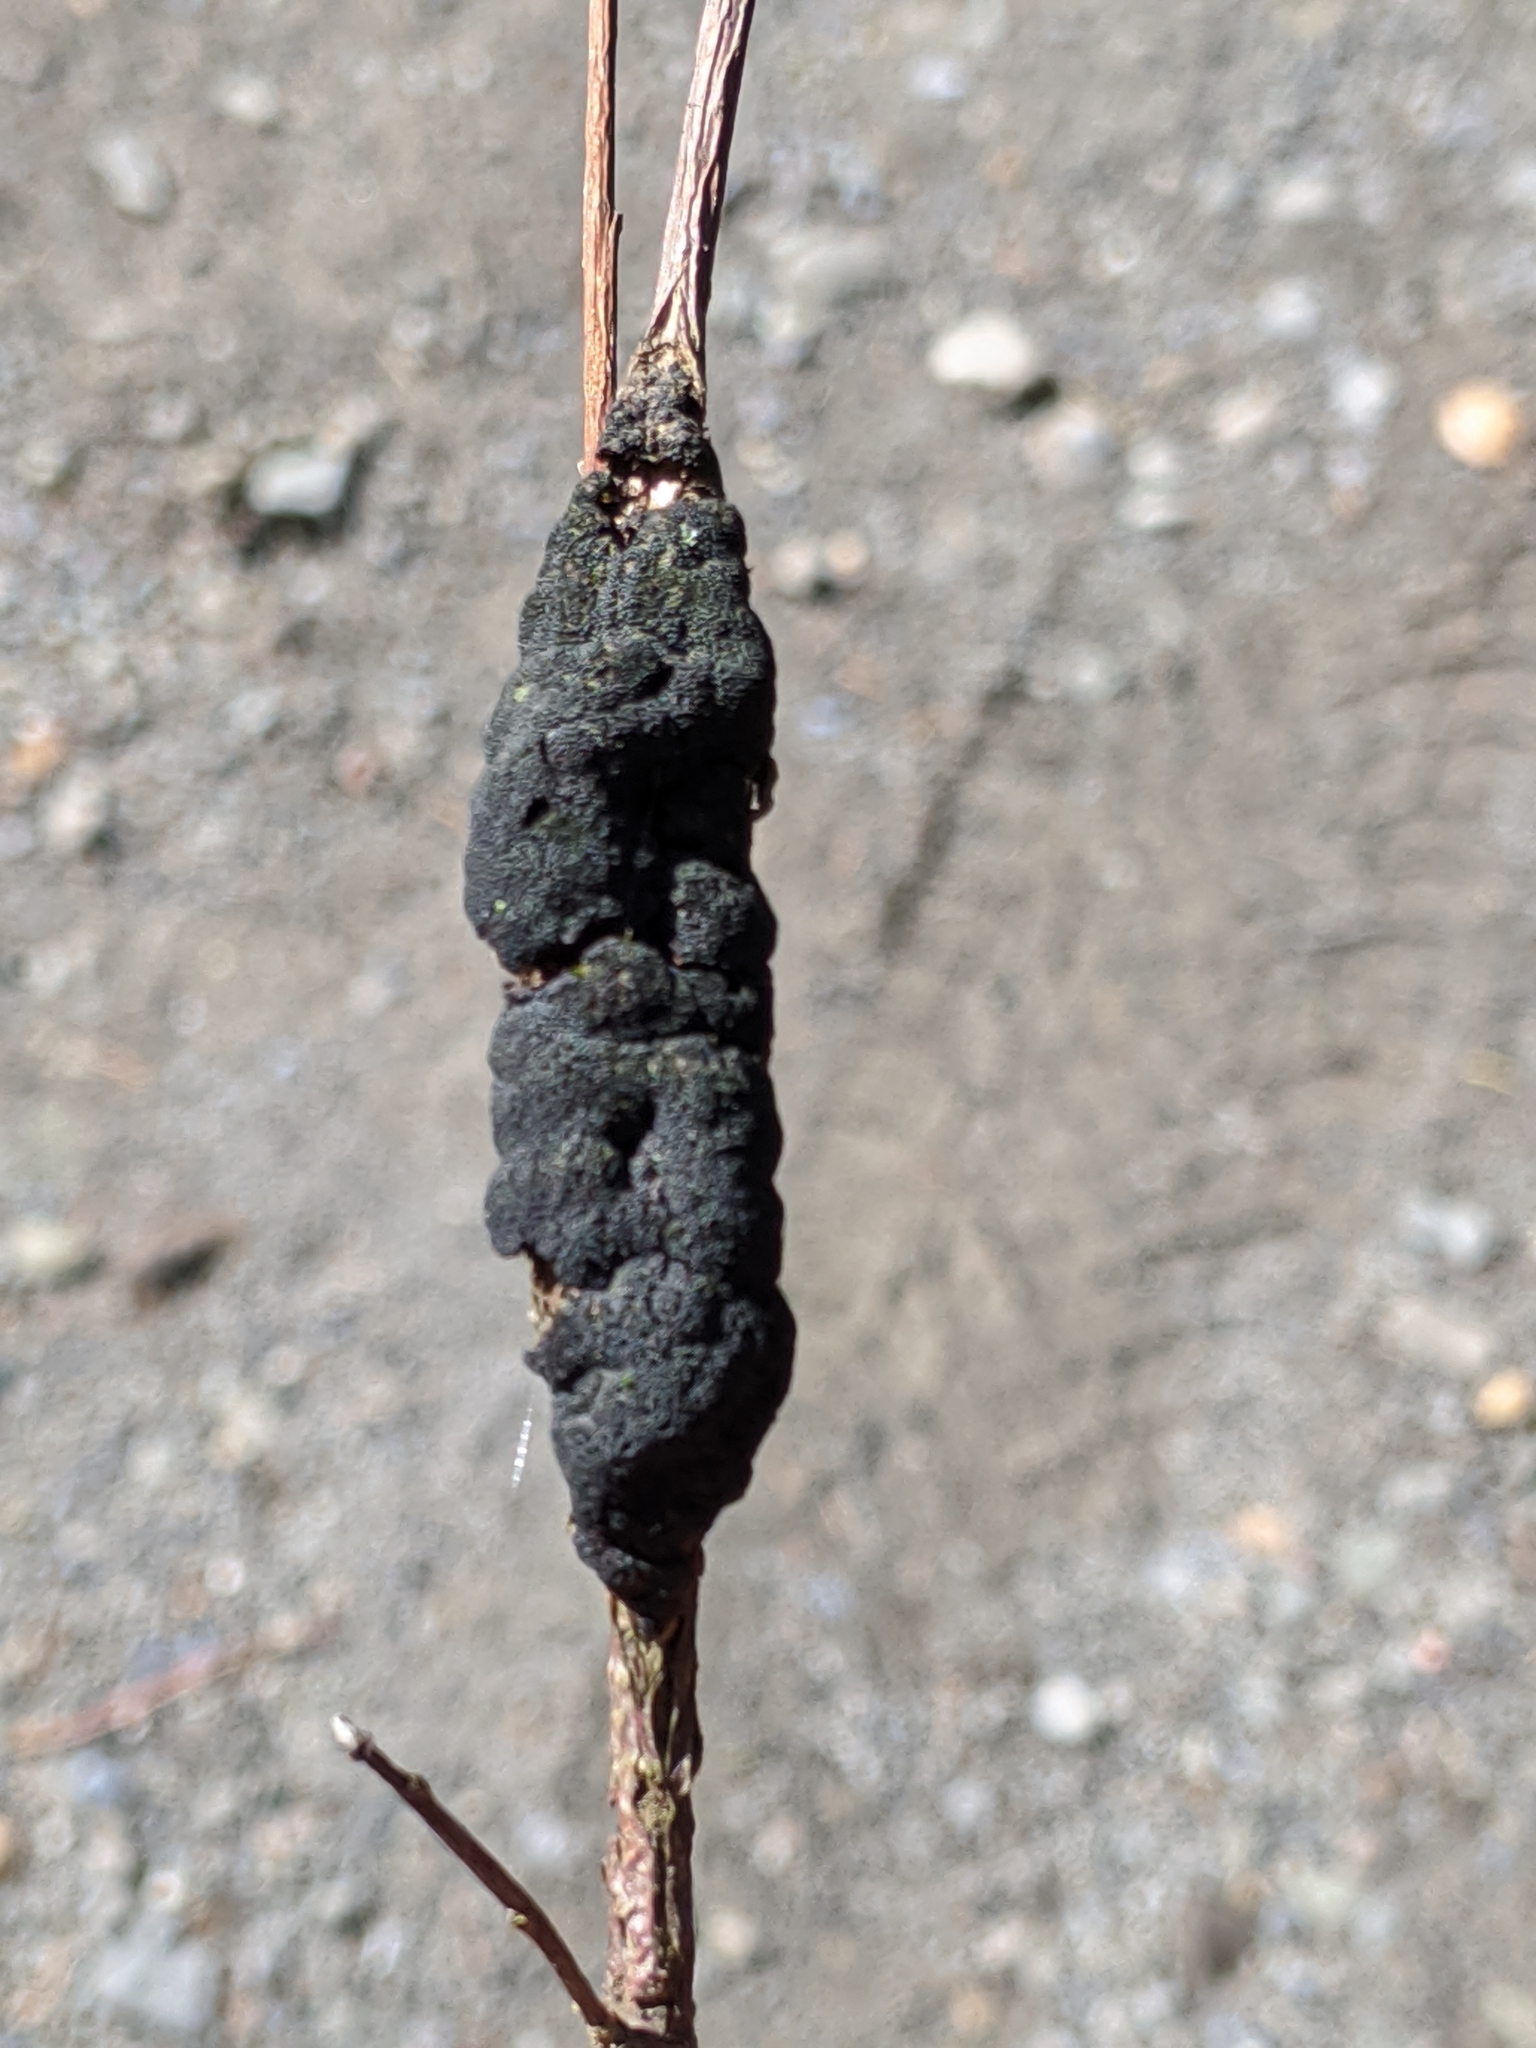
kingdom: Fungi
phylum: Ascomycota
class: Dothideomycetes
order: Venturiales
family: Venturiaceae
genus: Apiosporina
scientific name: Apiosporina morbosa
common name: Black knot
